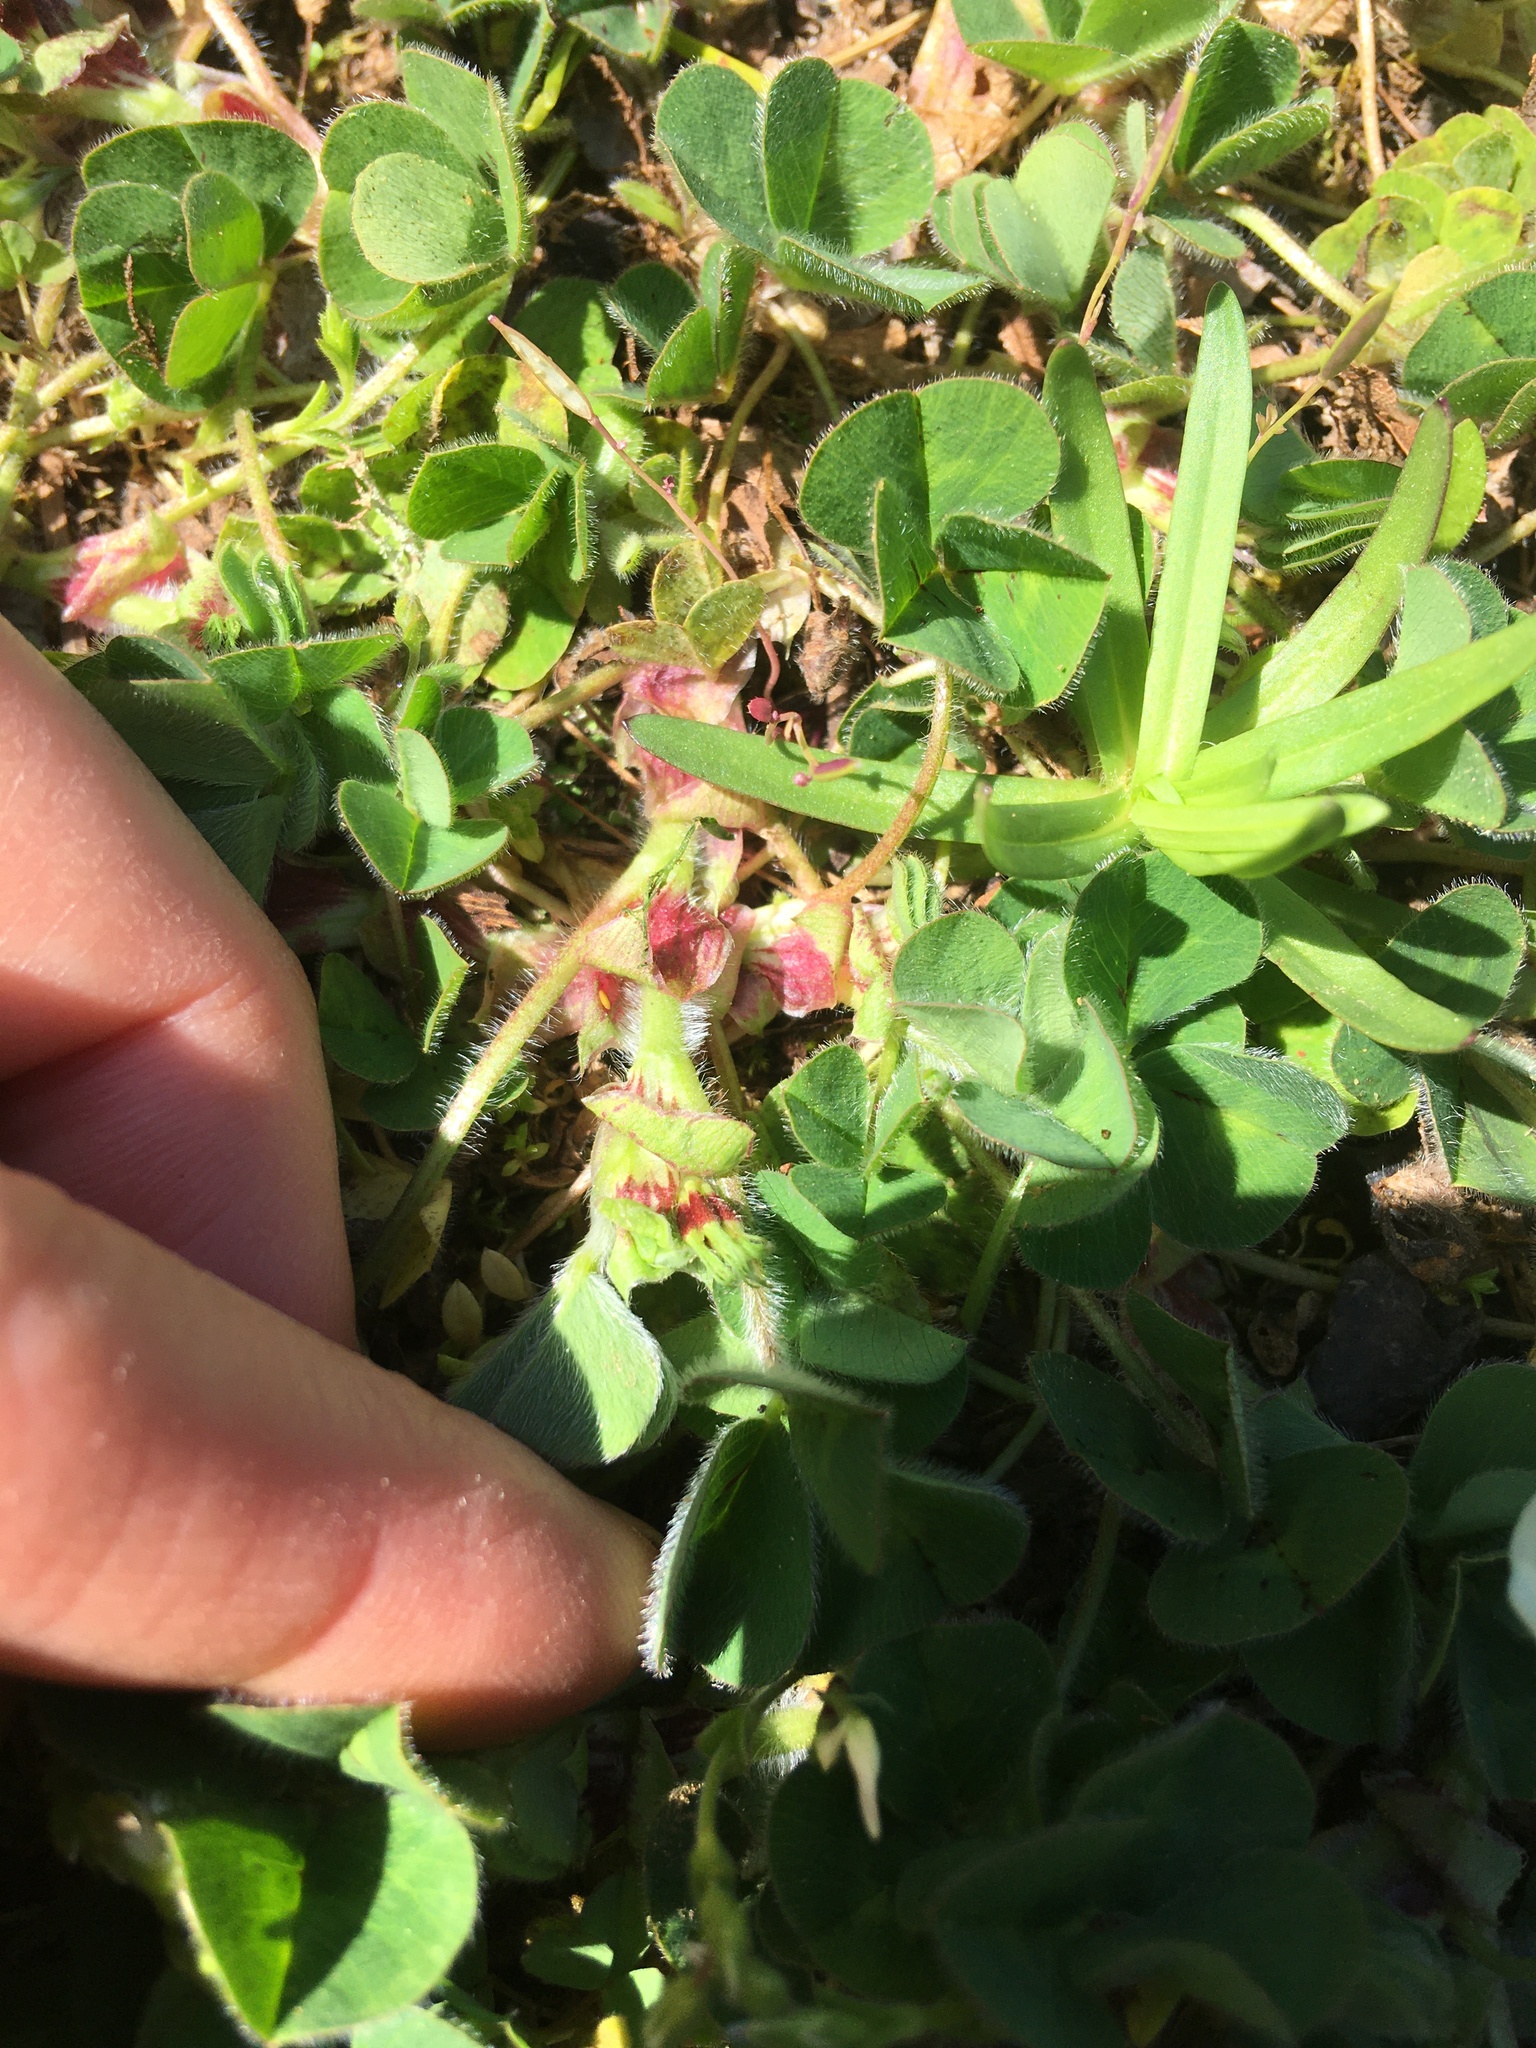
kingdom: Plantae
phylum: Tracheophyta
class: Magnoliopsida
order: Fabales
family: Fabaceae
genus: Trifolium
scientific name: Trifolium subterraneum
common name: Subterranean clover
